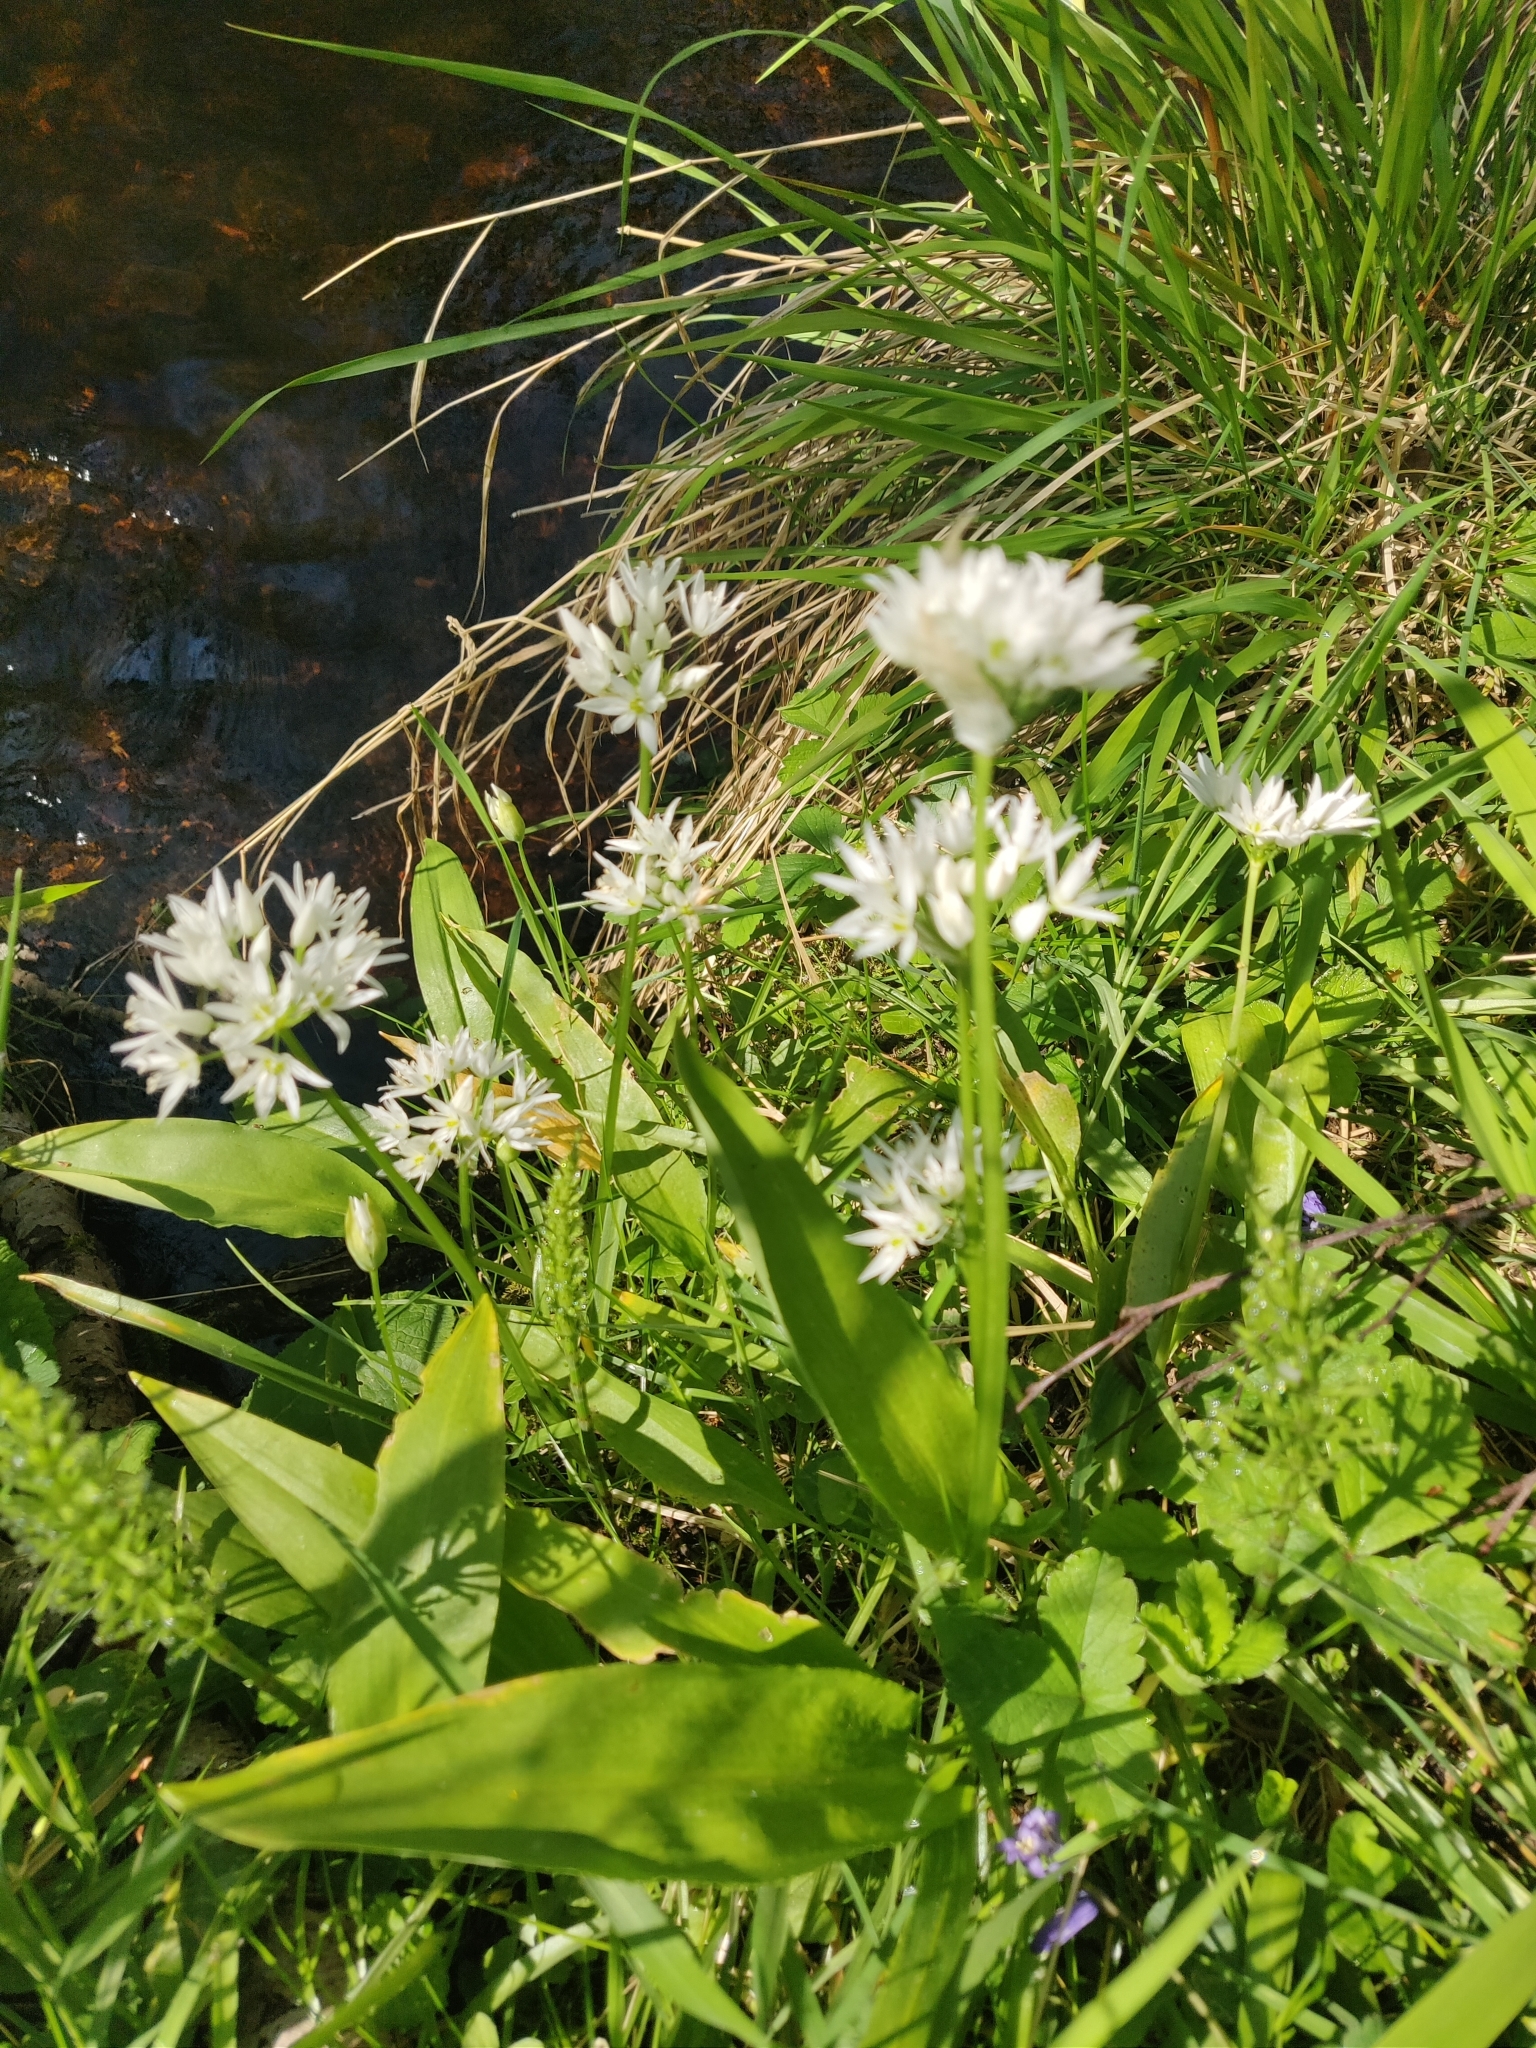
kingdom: Plantae
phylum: Tracheophyta
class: Liliopsida
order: Asparagales
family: Amaryllidaceae
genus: Allium
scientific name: Allium ursinum
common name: Ramsons
